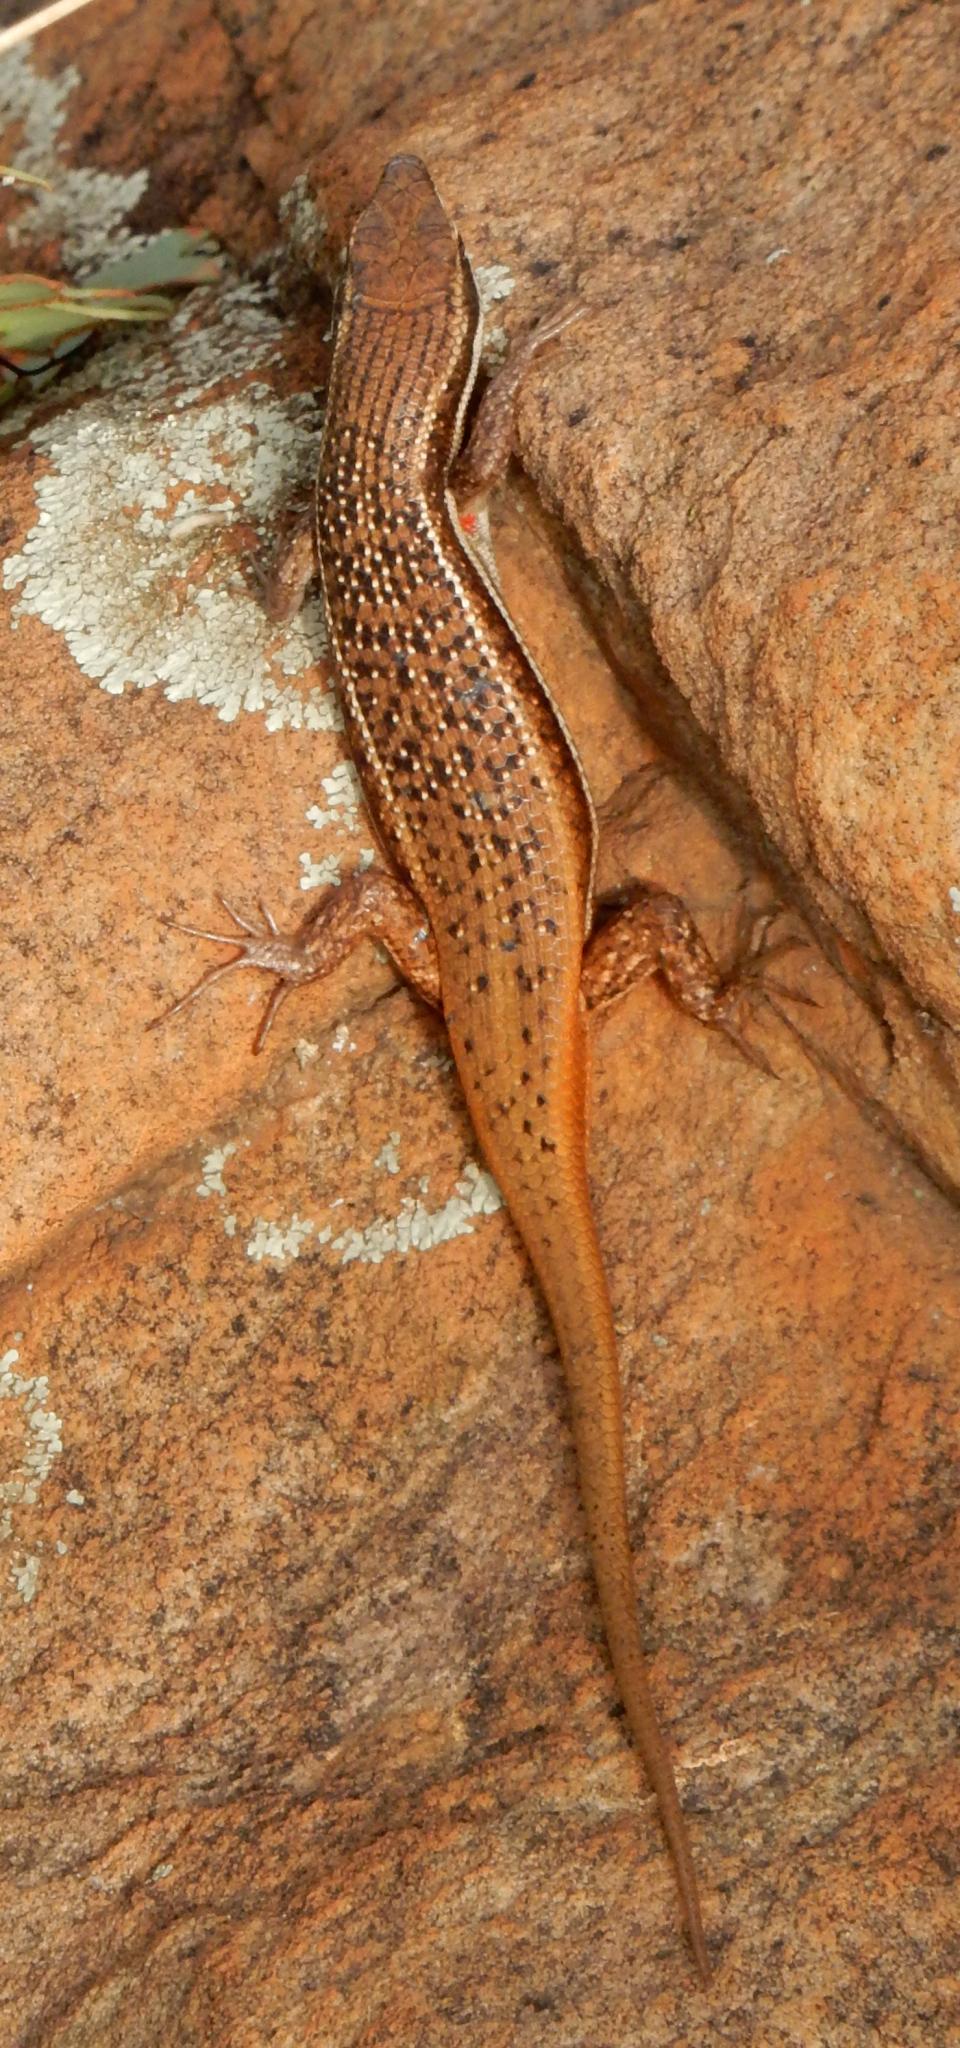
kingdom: Animalia
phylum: Chordata
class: Squamata
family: Scincidae
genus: Trachylepis
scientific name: Trachylepis varia
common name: Eastern variable skink
